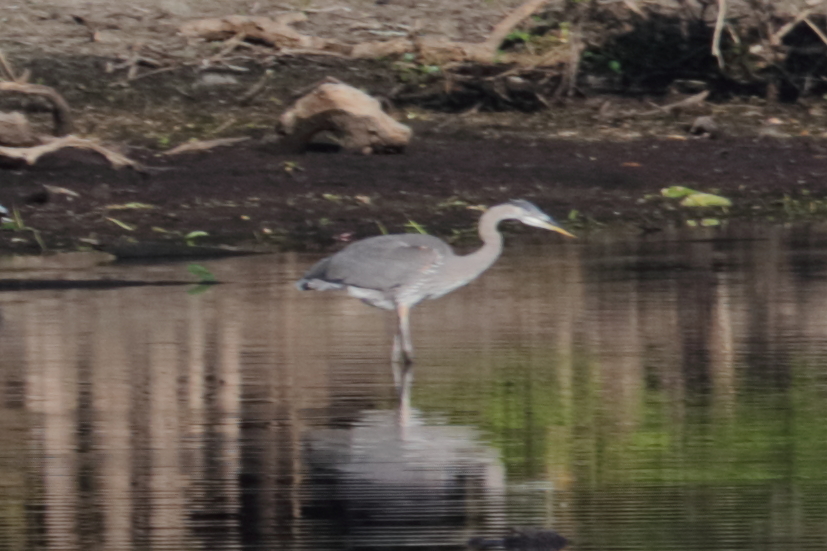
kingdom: Animalia
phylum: Chordata
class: Aves
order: Pelecaniformes
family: Ardeidae
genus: Ardea
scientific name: Ardea herodias
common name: Great blue heron
